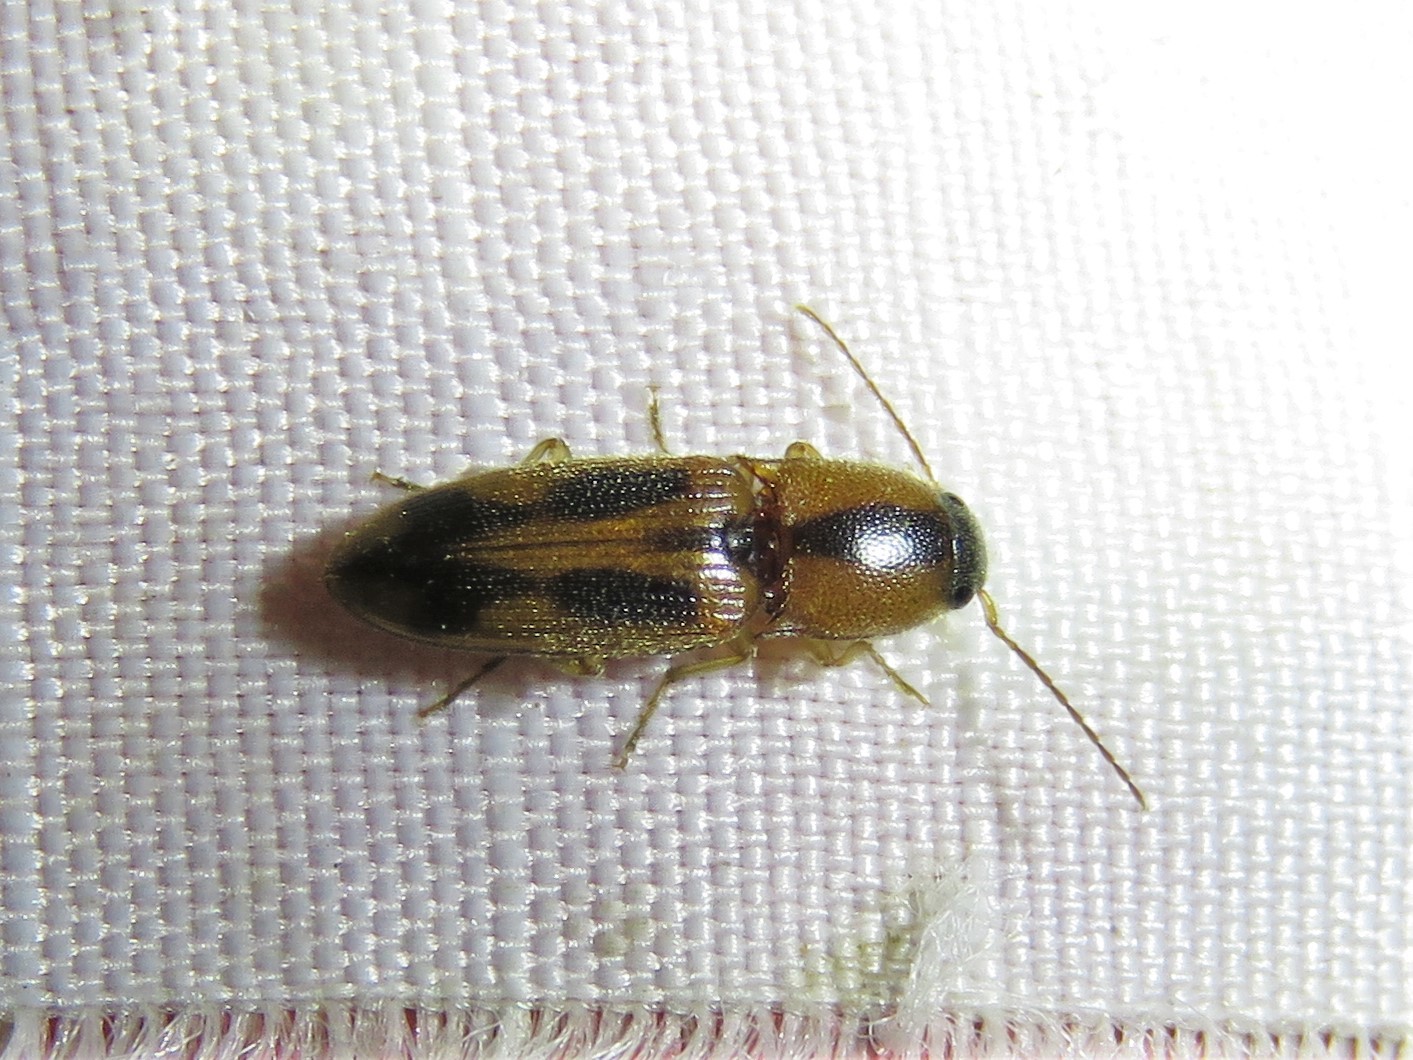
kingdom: Animalia
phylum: Arthropoda
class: Insecta
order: Coleoptera
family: Elateridae
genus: Aeolus
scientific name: Aeolus
